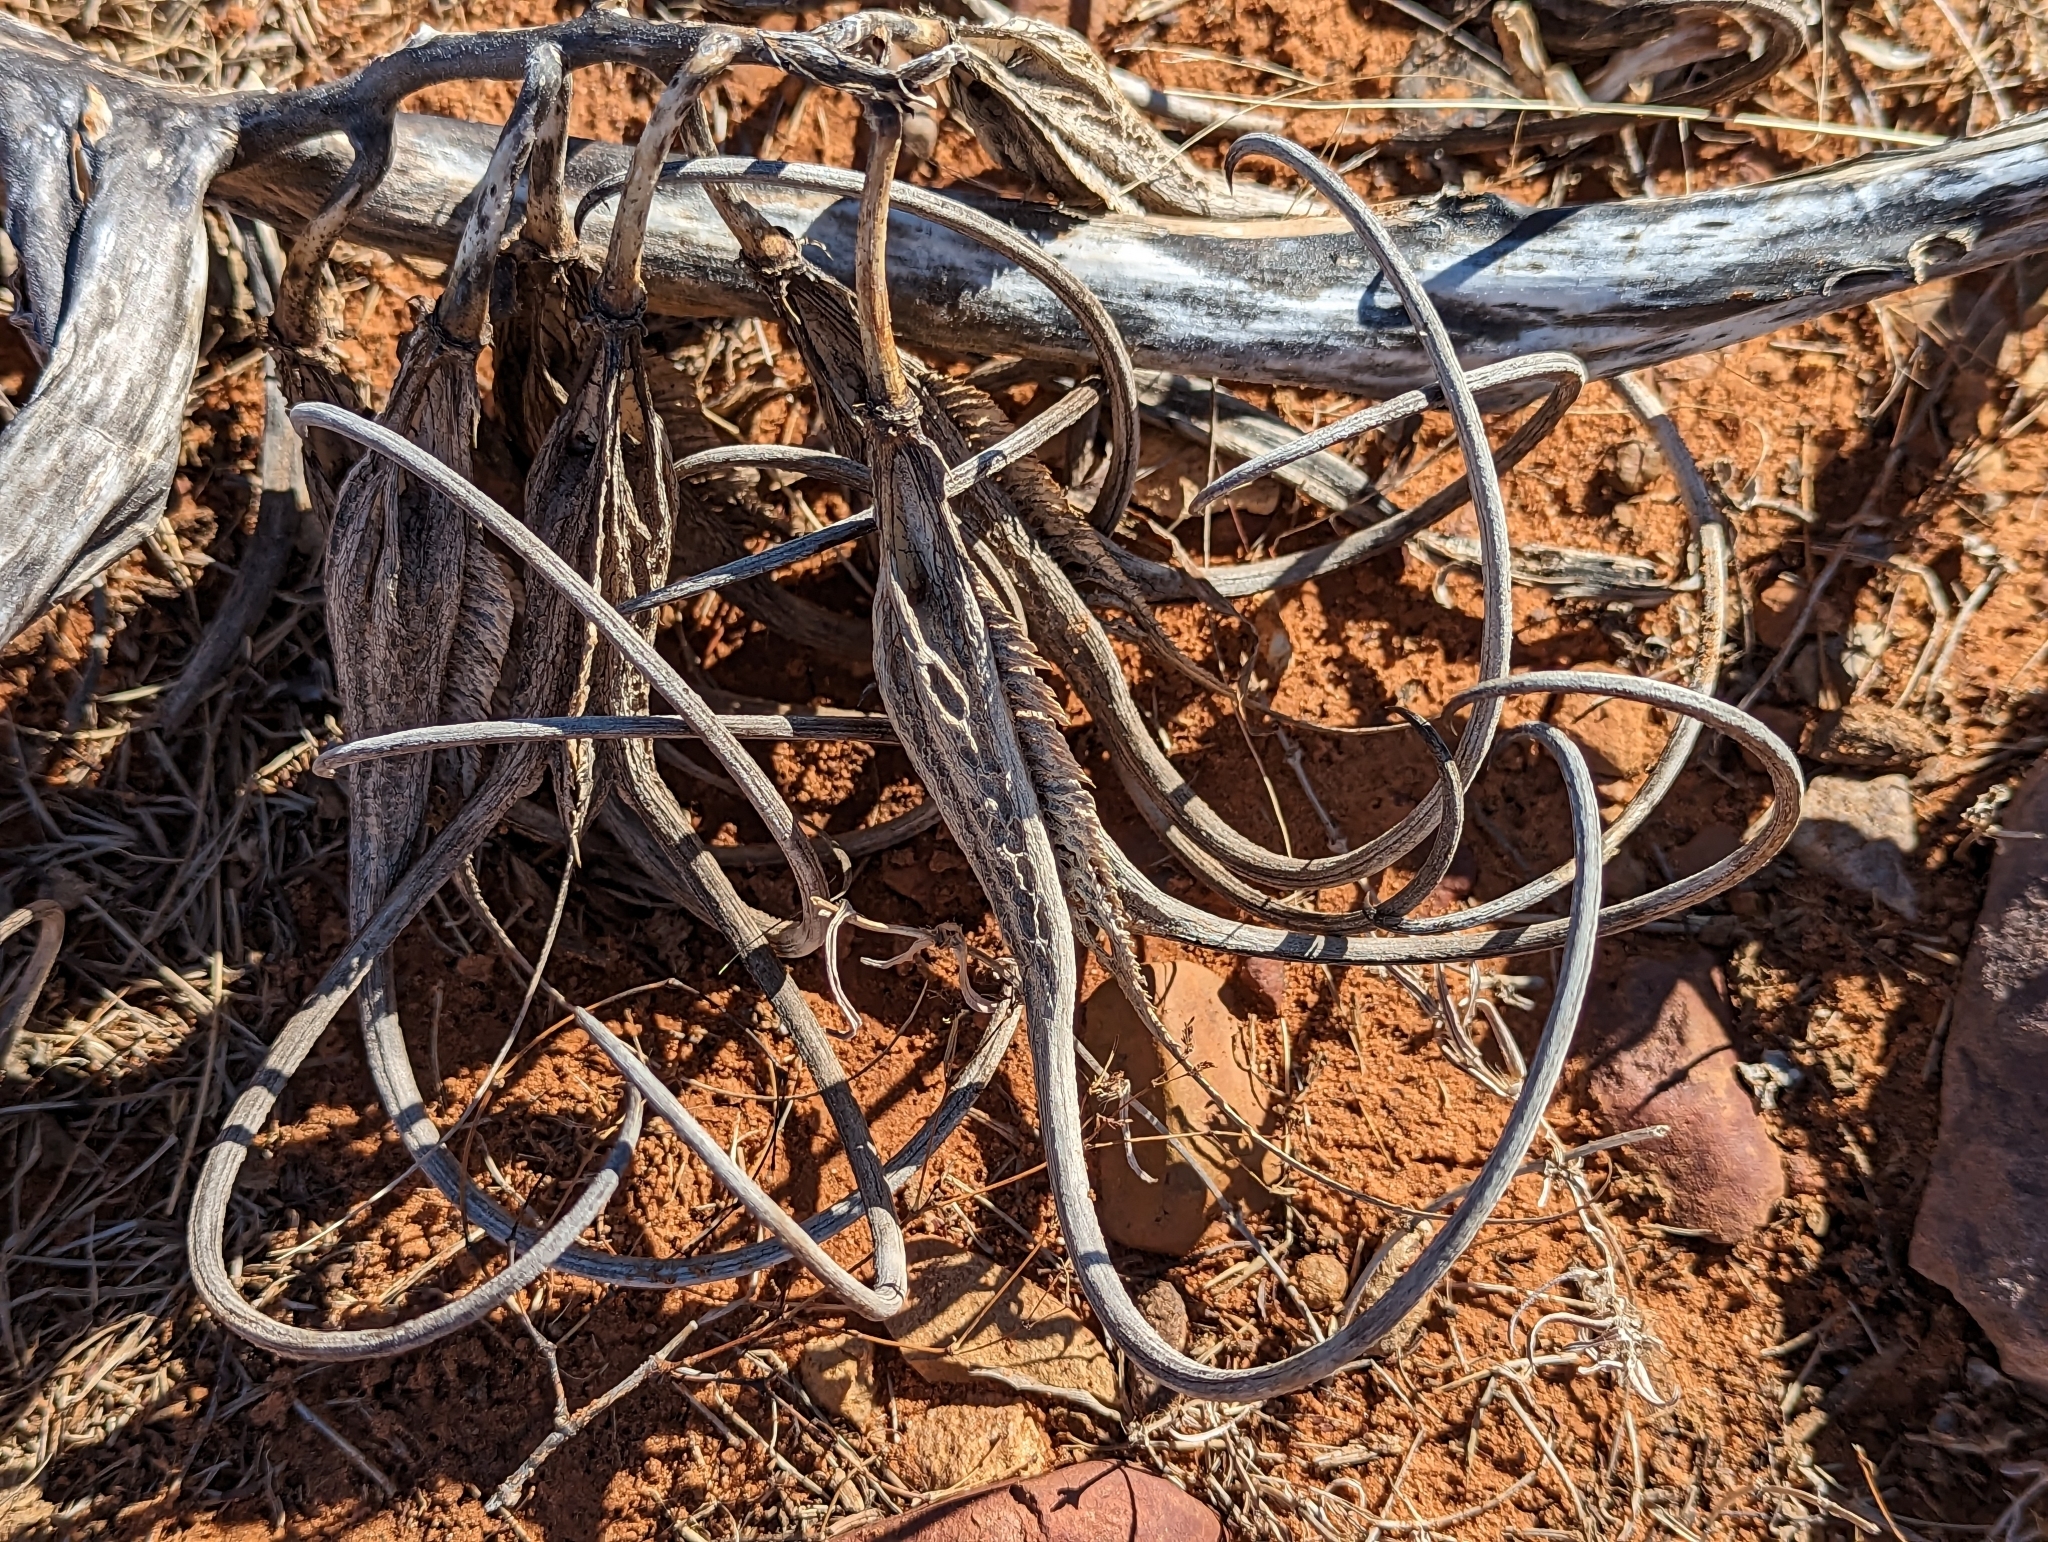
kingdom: Plantae
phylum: Tracheophyta
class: Magnoliopsida
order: Lamiales
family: Martyniaceae
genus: Proboscidea
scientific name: Proboscidea parviflora
